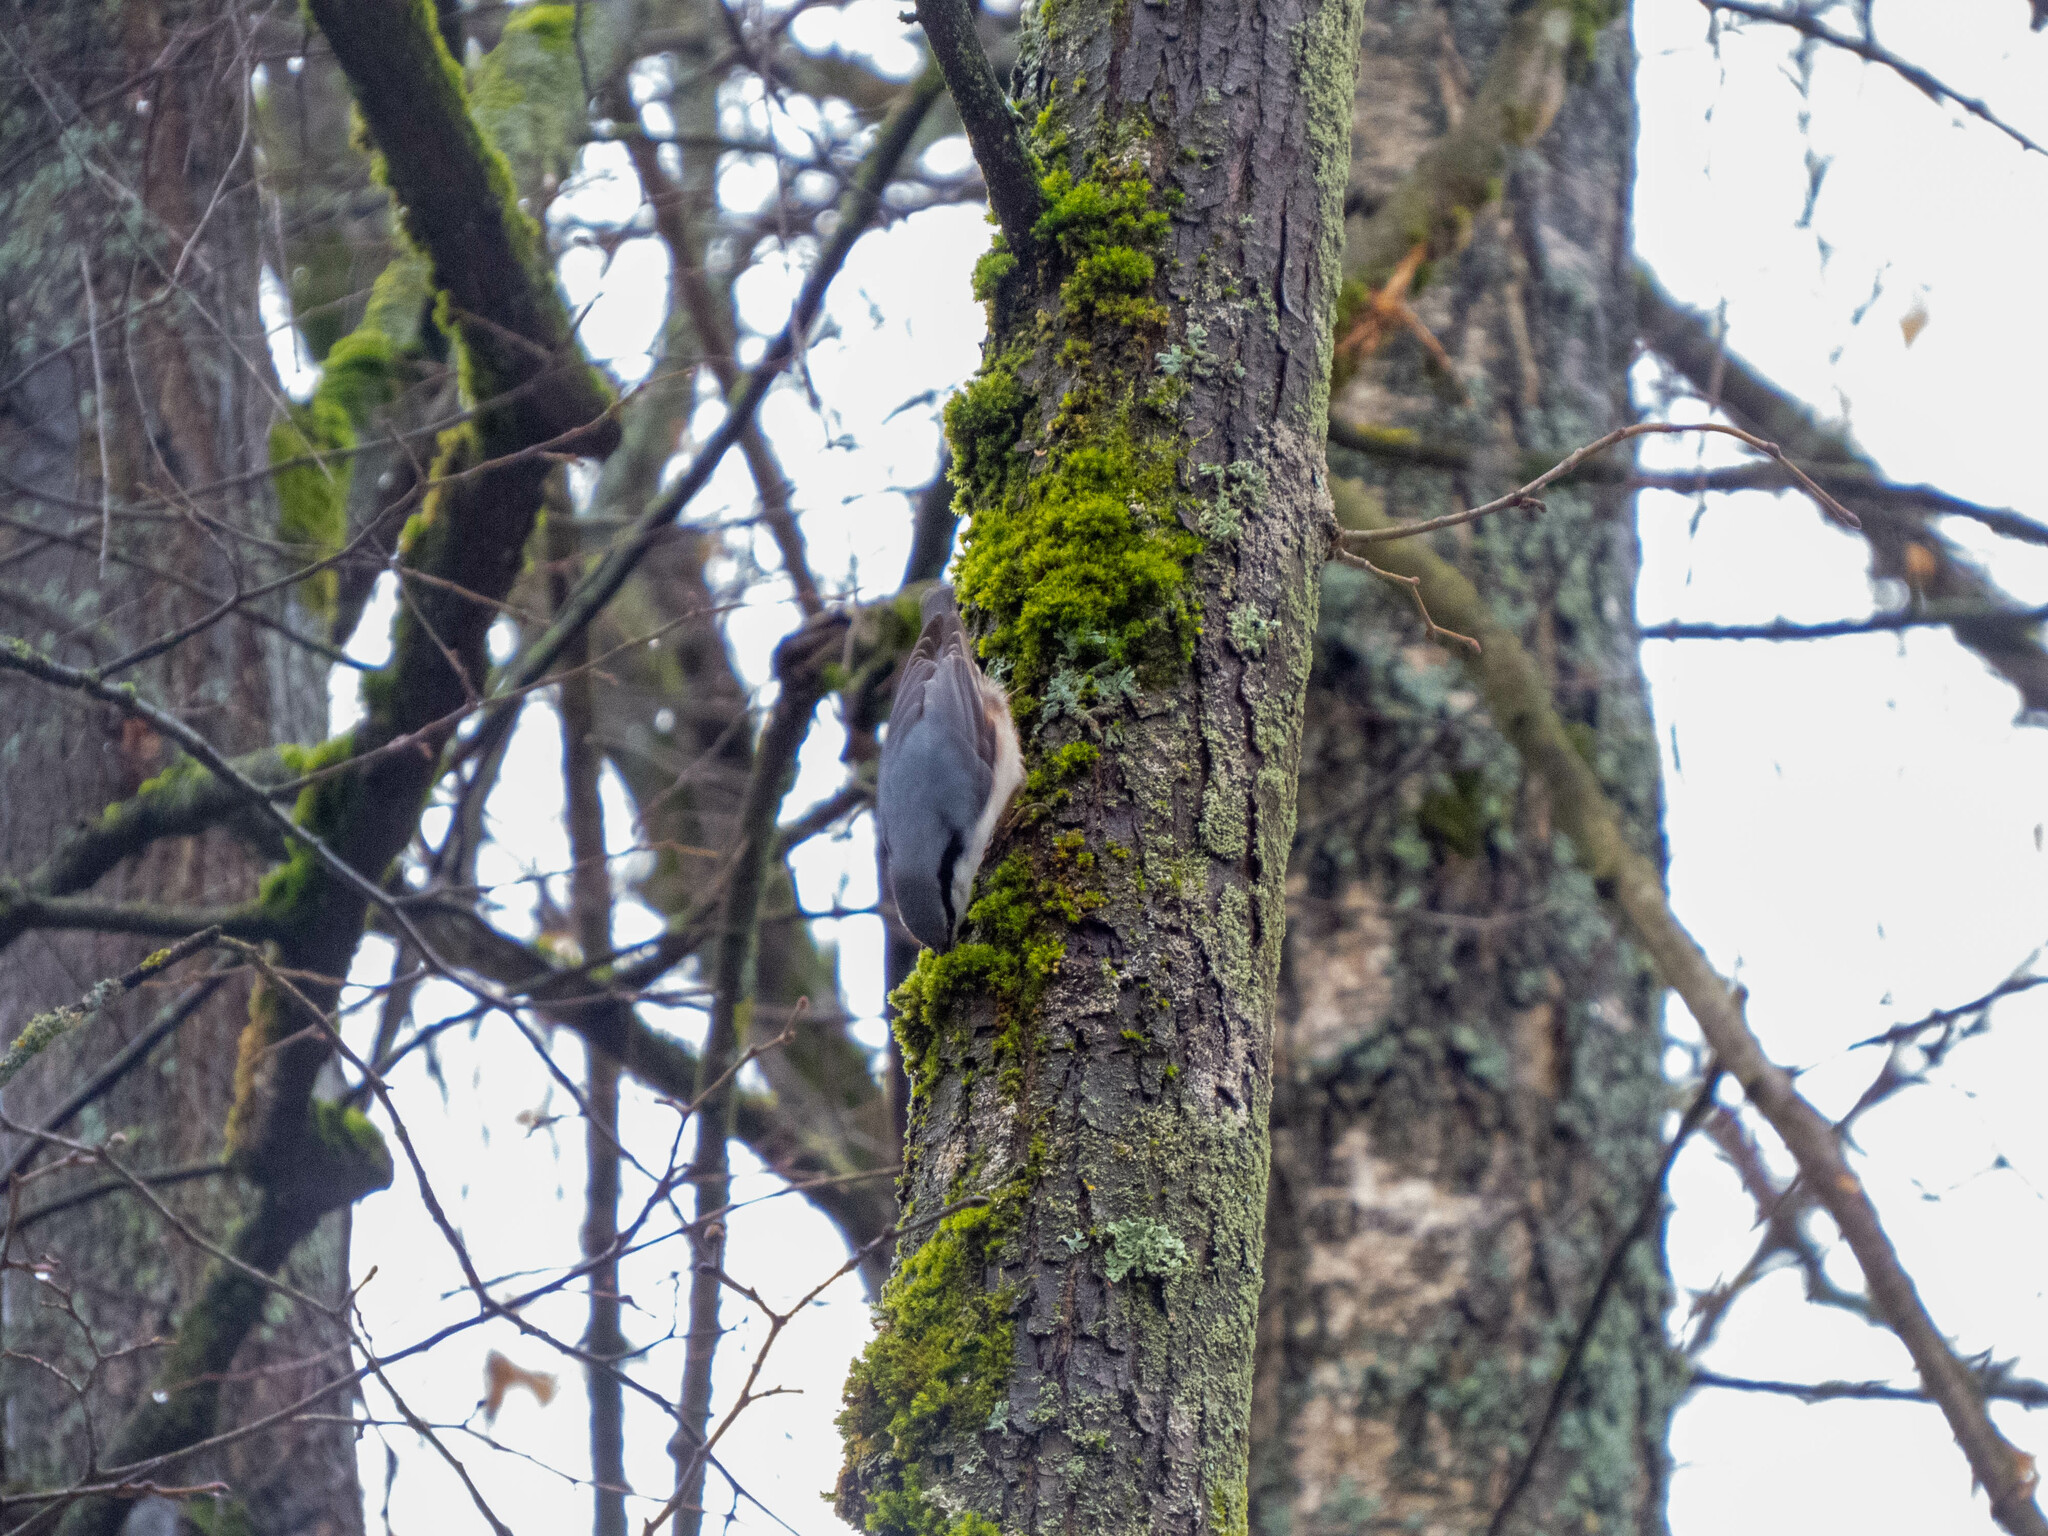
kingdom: Animalia
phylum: Chordata
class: Aves
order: Passeriformes
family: Sittidae
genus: Sitta
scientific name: Sitta europaea
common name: Eurasian nuthatch
